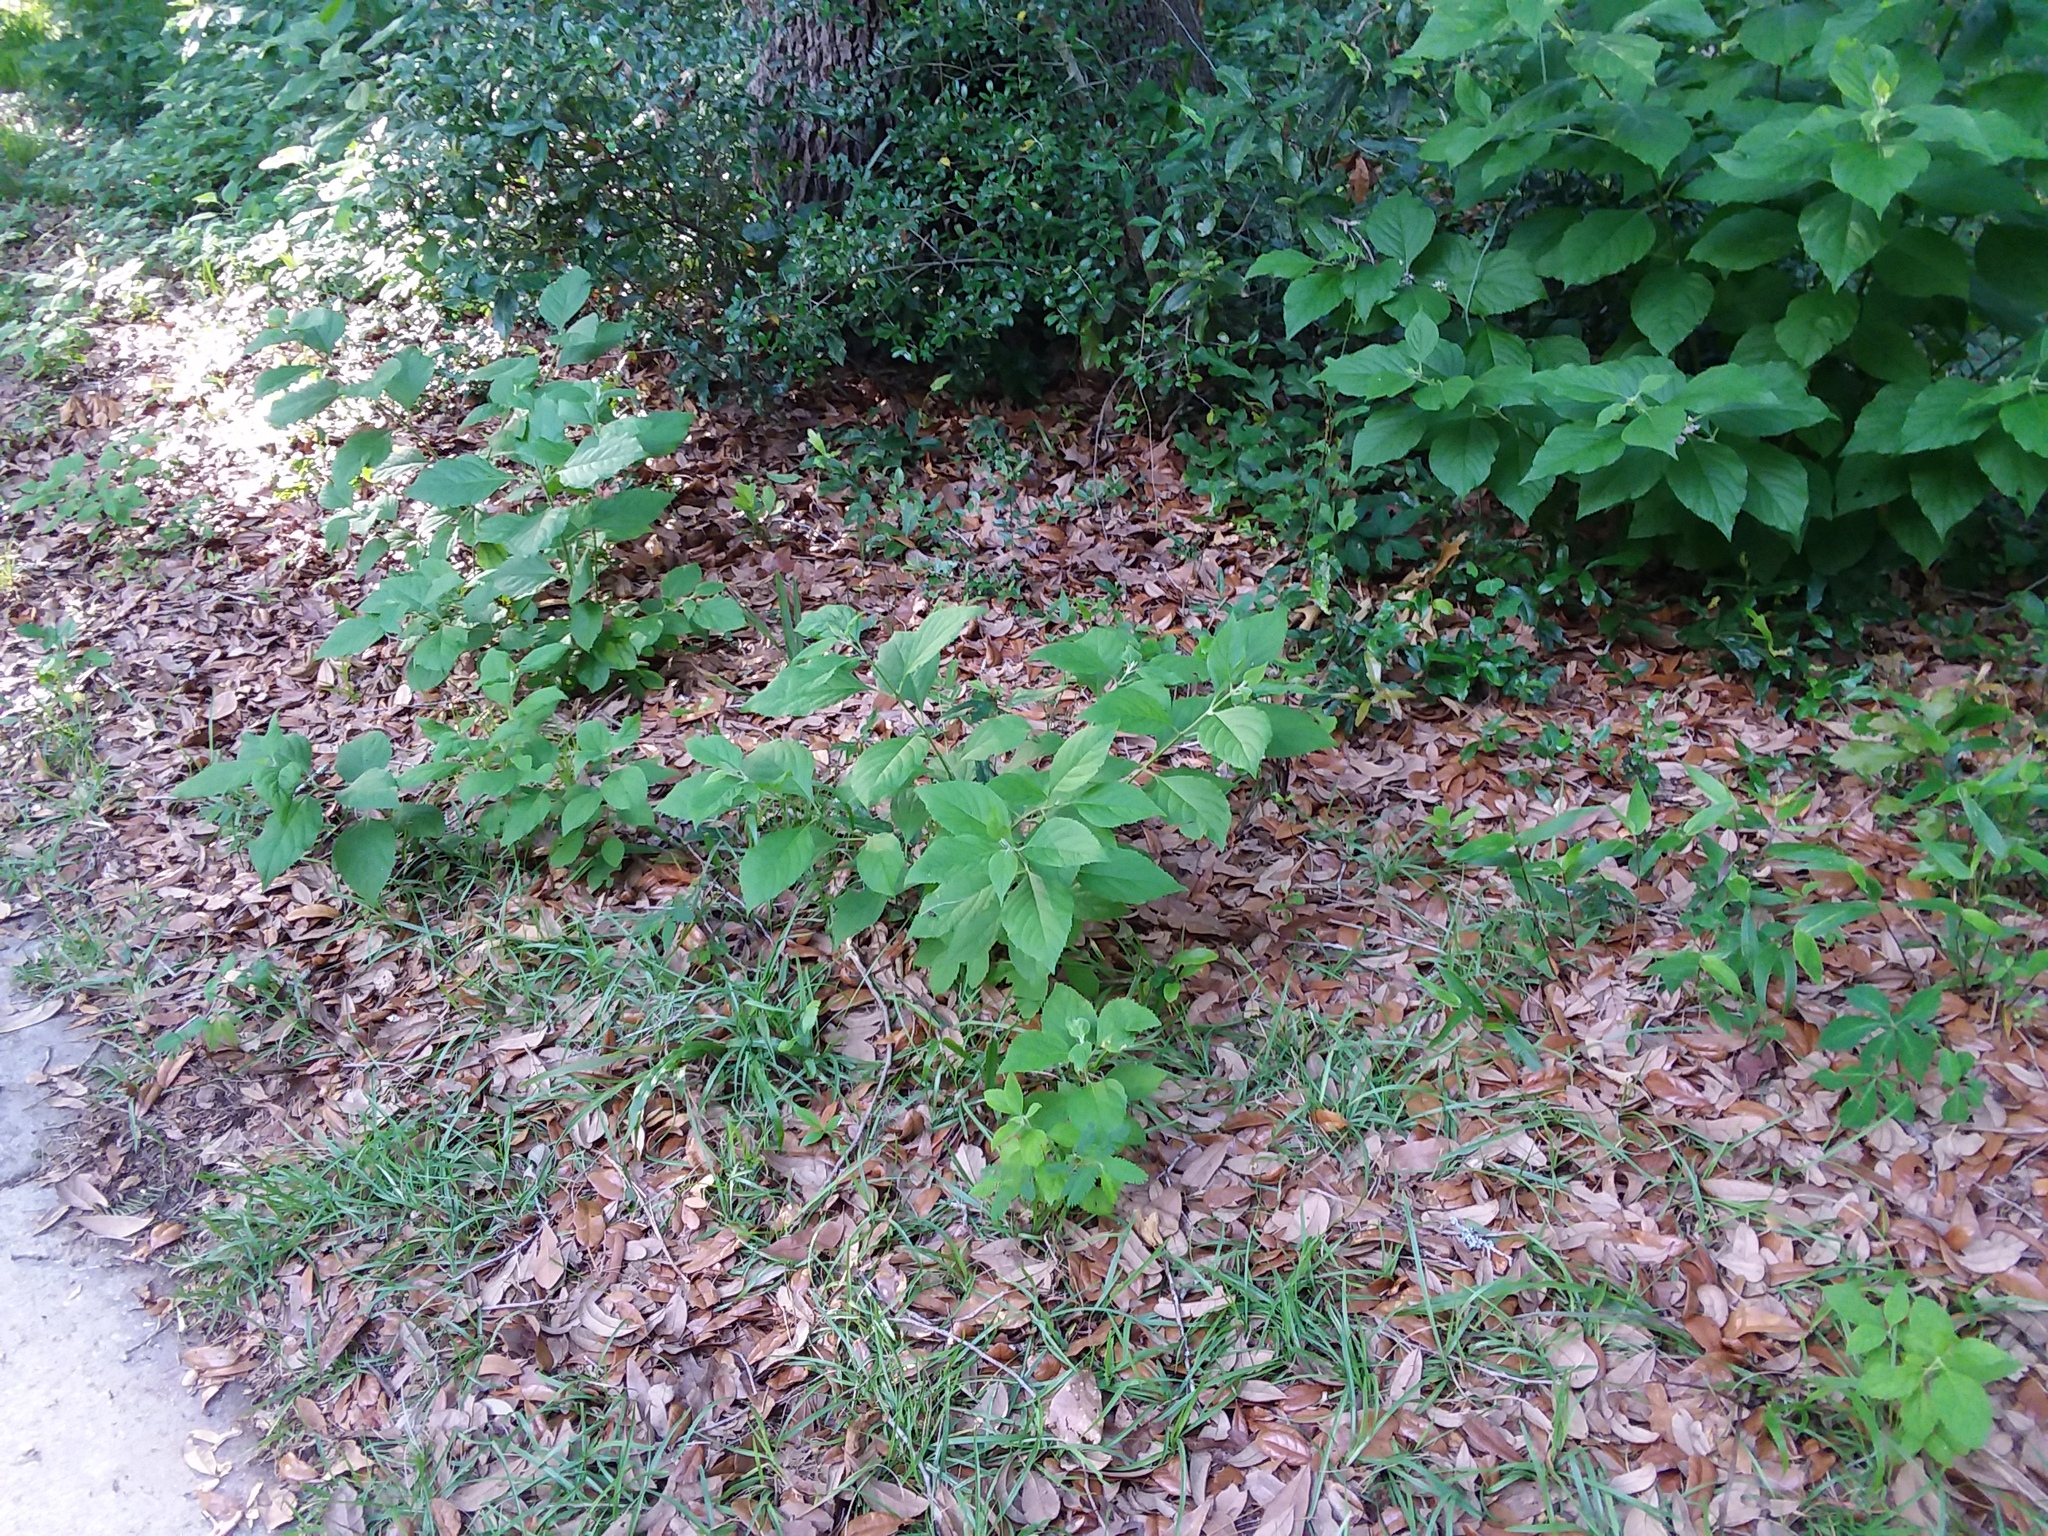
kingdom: Plantae
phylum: Tracheophyta
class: Magnoliopsida
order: Lamiales
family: Lamiaceae
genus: Callicarpa
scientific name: Callicarpa americana
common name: American beautyberry
